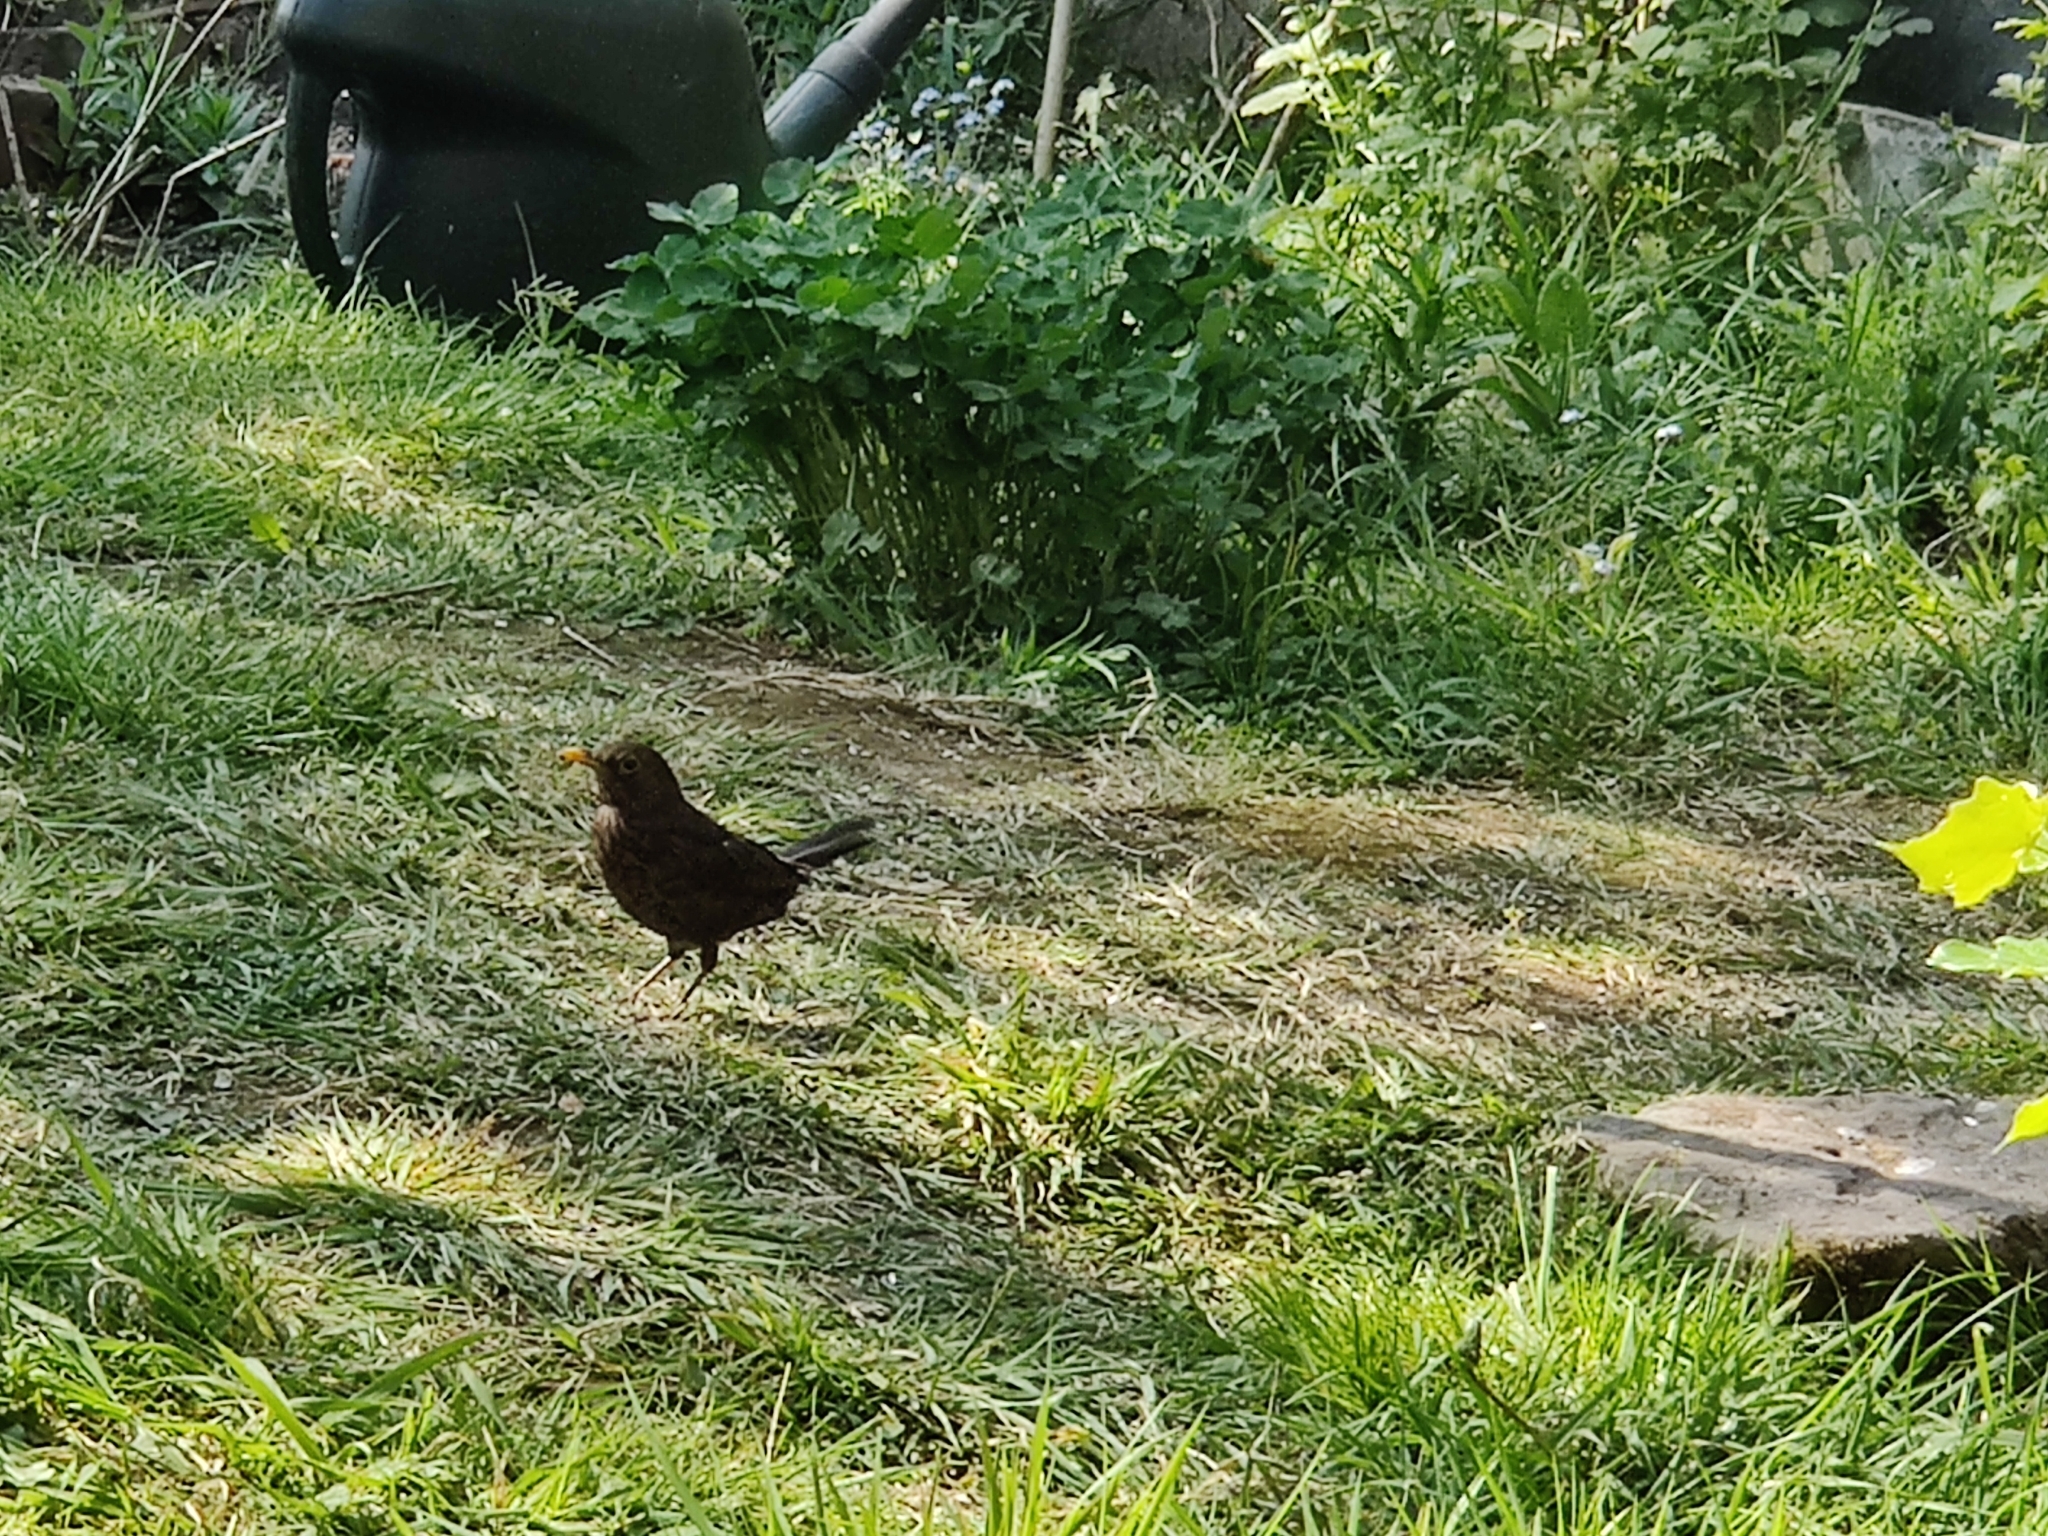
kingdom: Animalia
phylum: Chordata
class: Aves
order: Passeriformes
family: Turdidae
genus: Turdus
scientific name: Turdus merula
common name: Common blackbird
